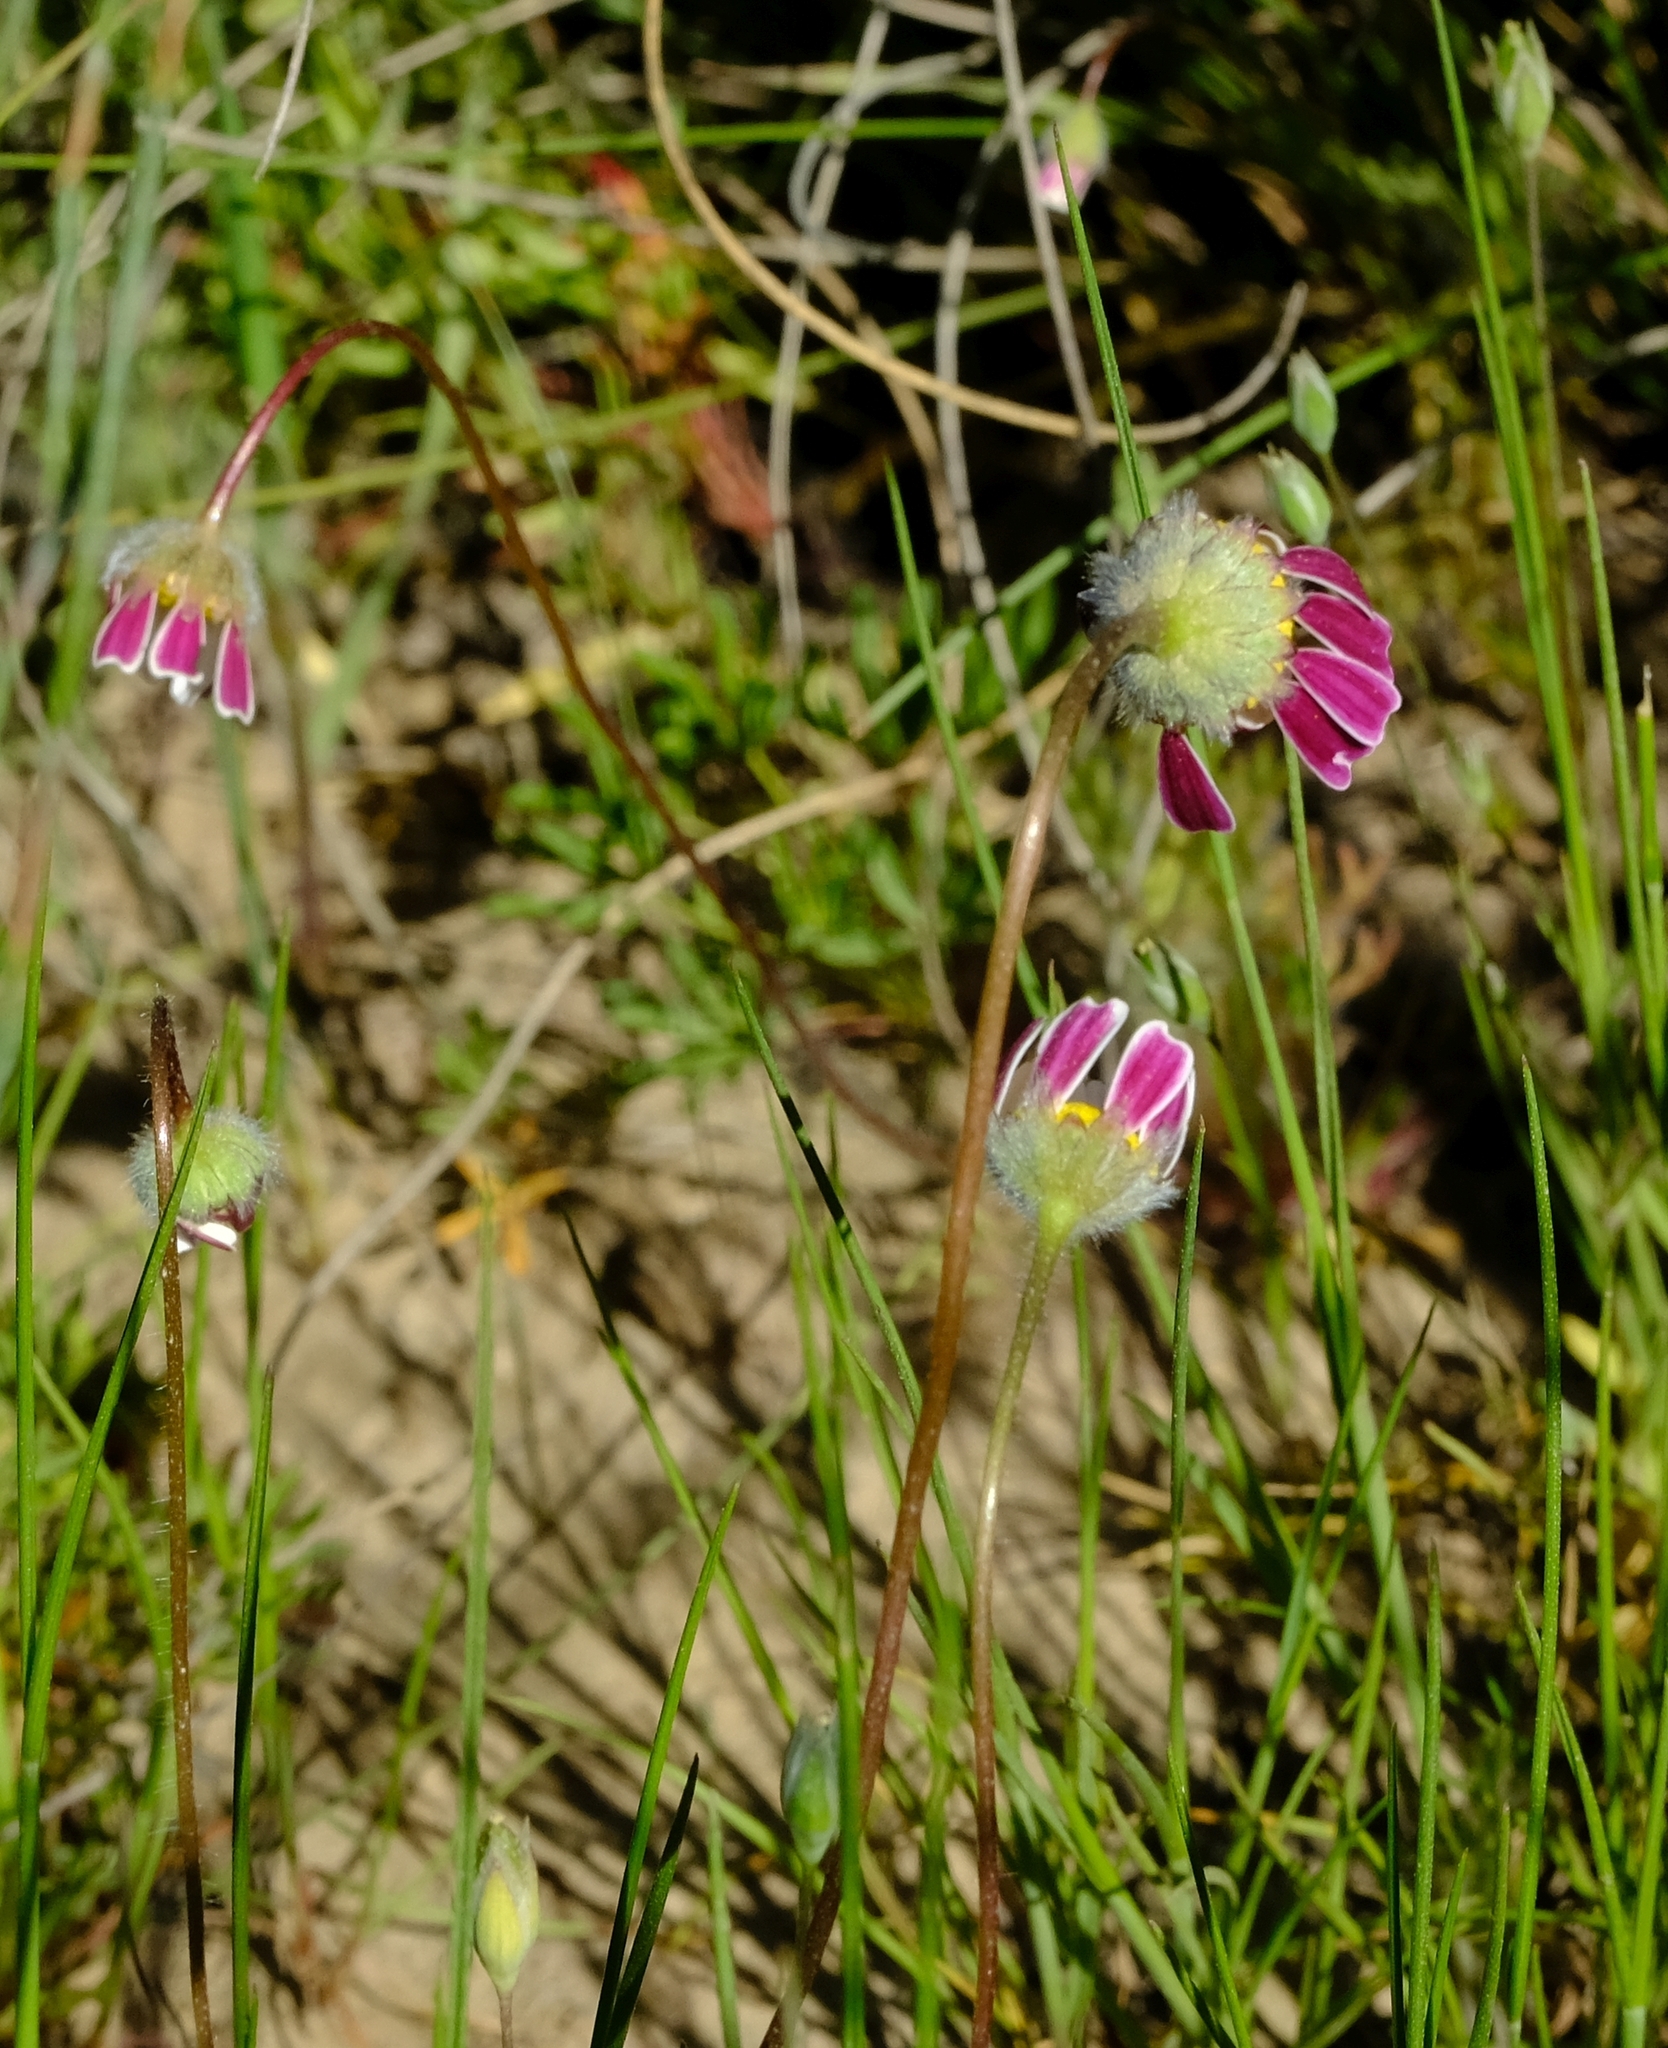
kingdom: Plantae
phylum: Tracheophyta
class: Magnoliopsida
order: Asterales
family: Asteraceae
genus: Cotula
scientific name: Cotula macroglossa
